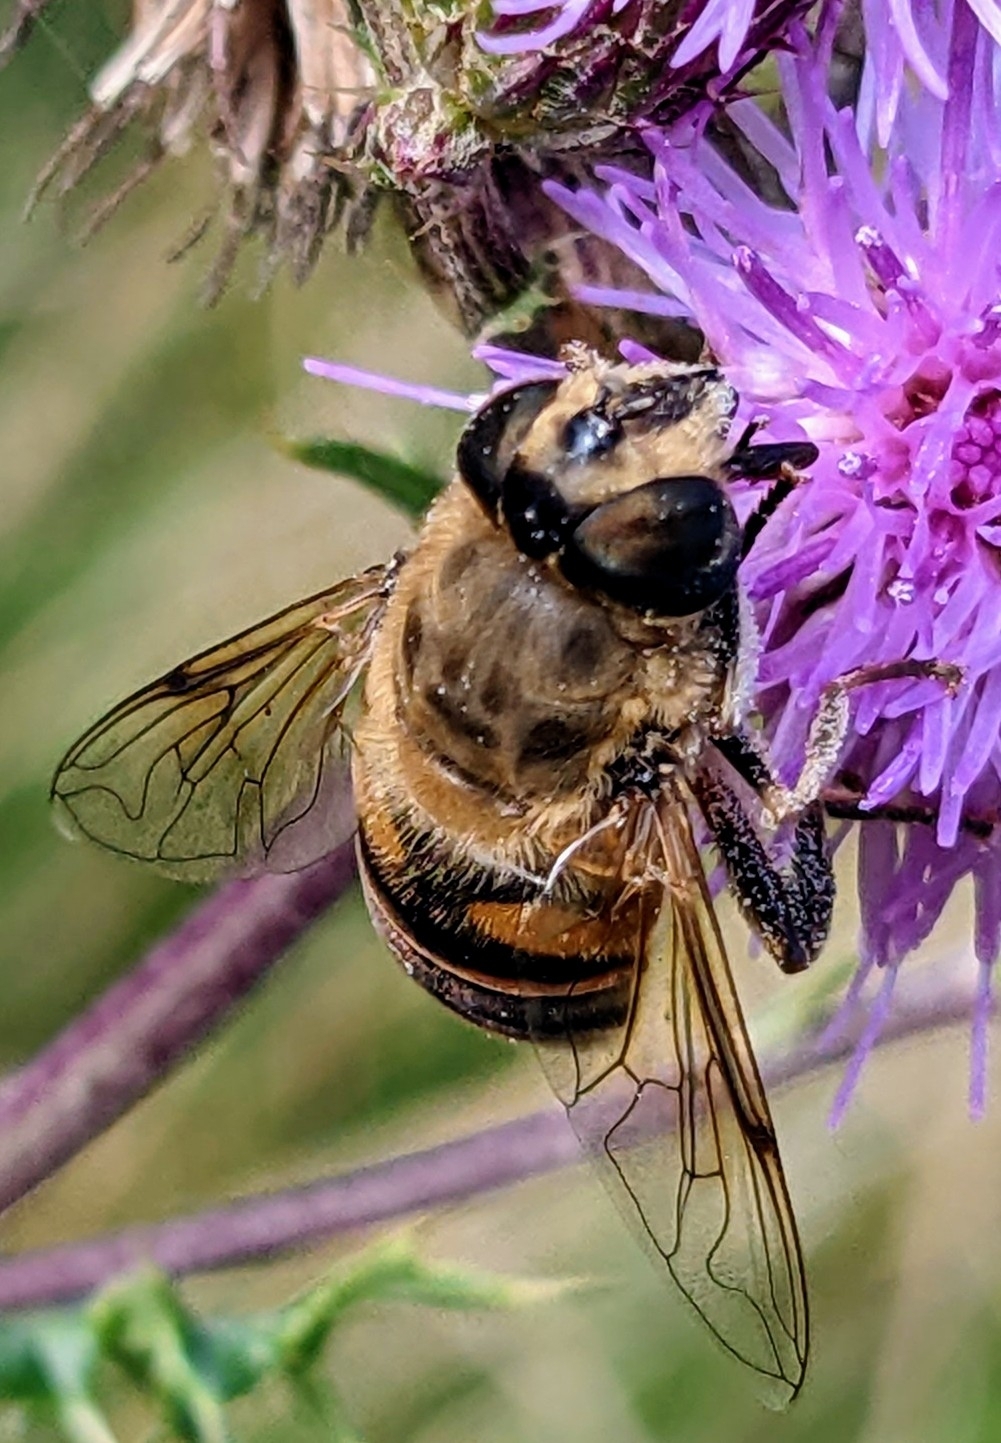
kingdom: Animalia
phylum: Arthropoda
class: Insecta
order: Diptera
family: Syrphidae
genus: Eristalis
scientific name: Eristalis tenax
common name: Drone fly
